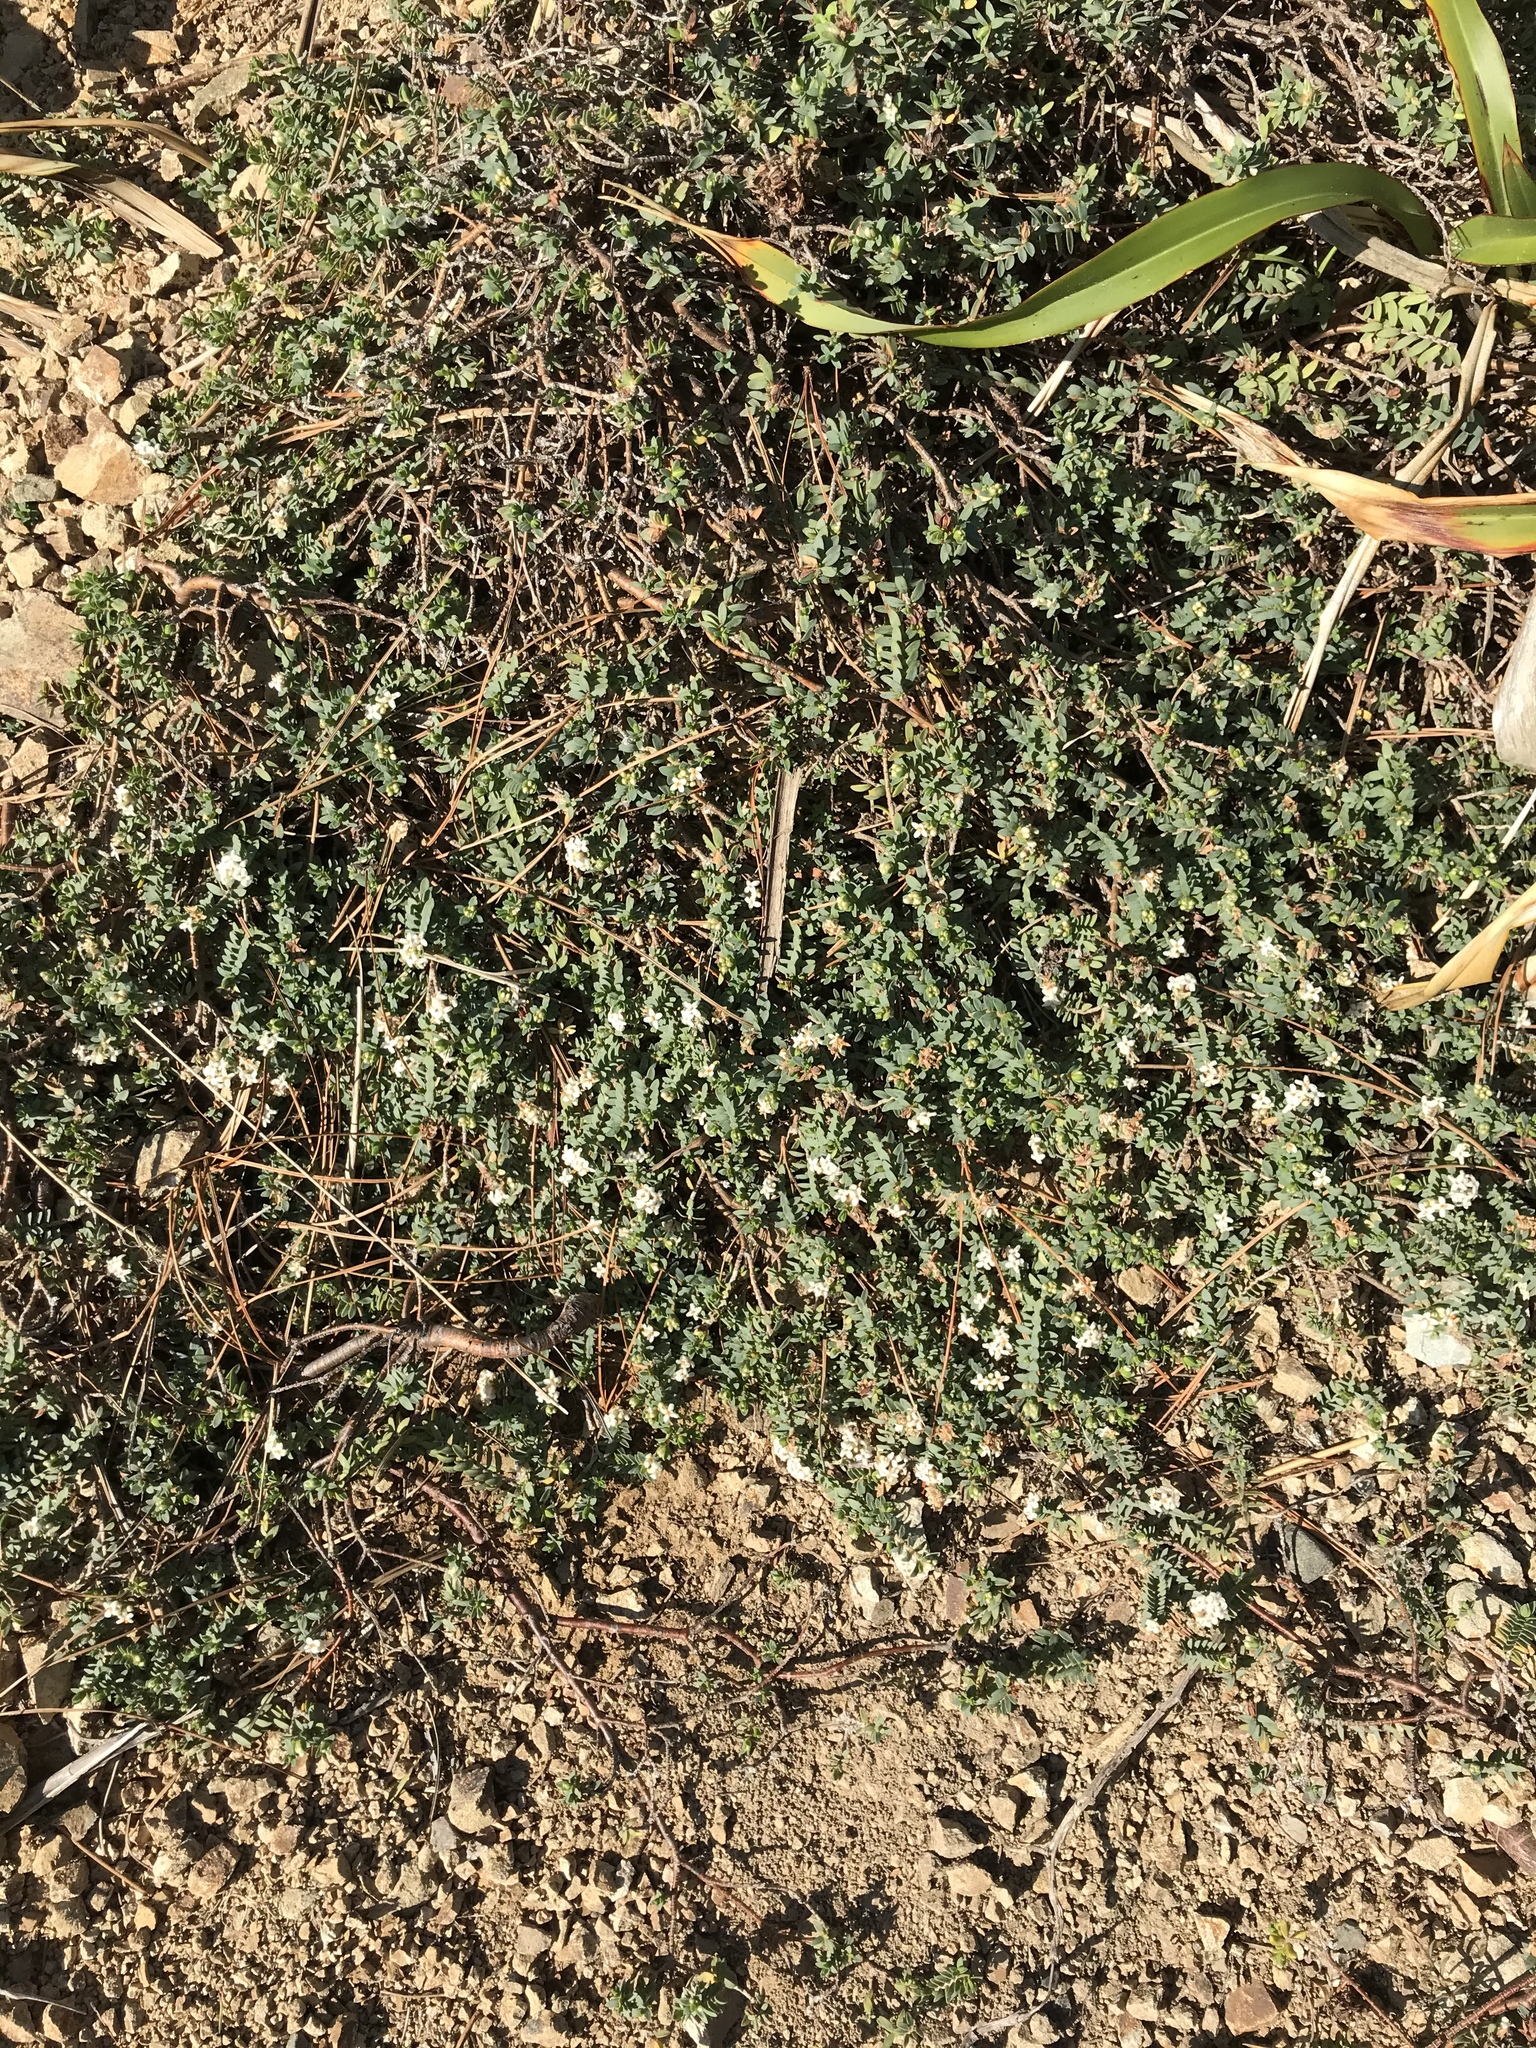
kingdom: Plantae
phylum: Tracheophyta
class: Magnoliopsida
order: Malvales
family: Thymelaeaceae
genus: Pimelea
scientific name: Pimelea prostrata
